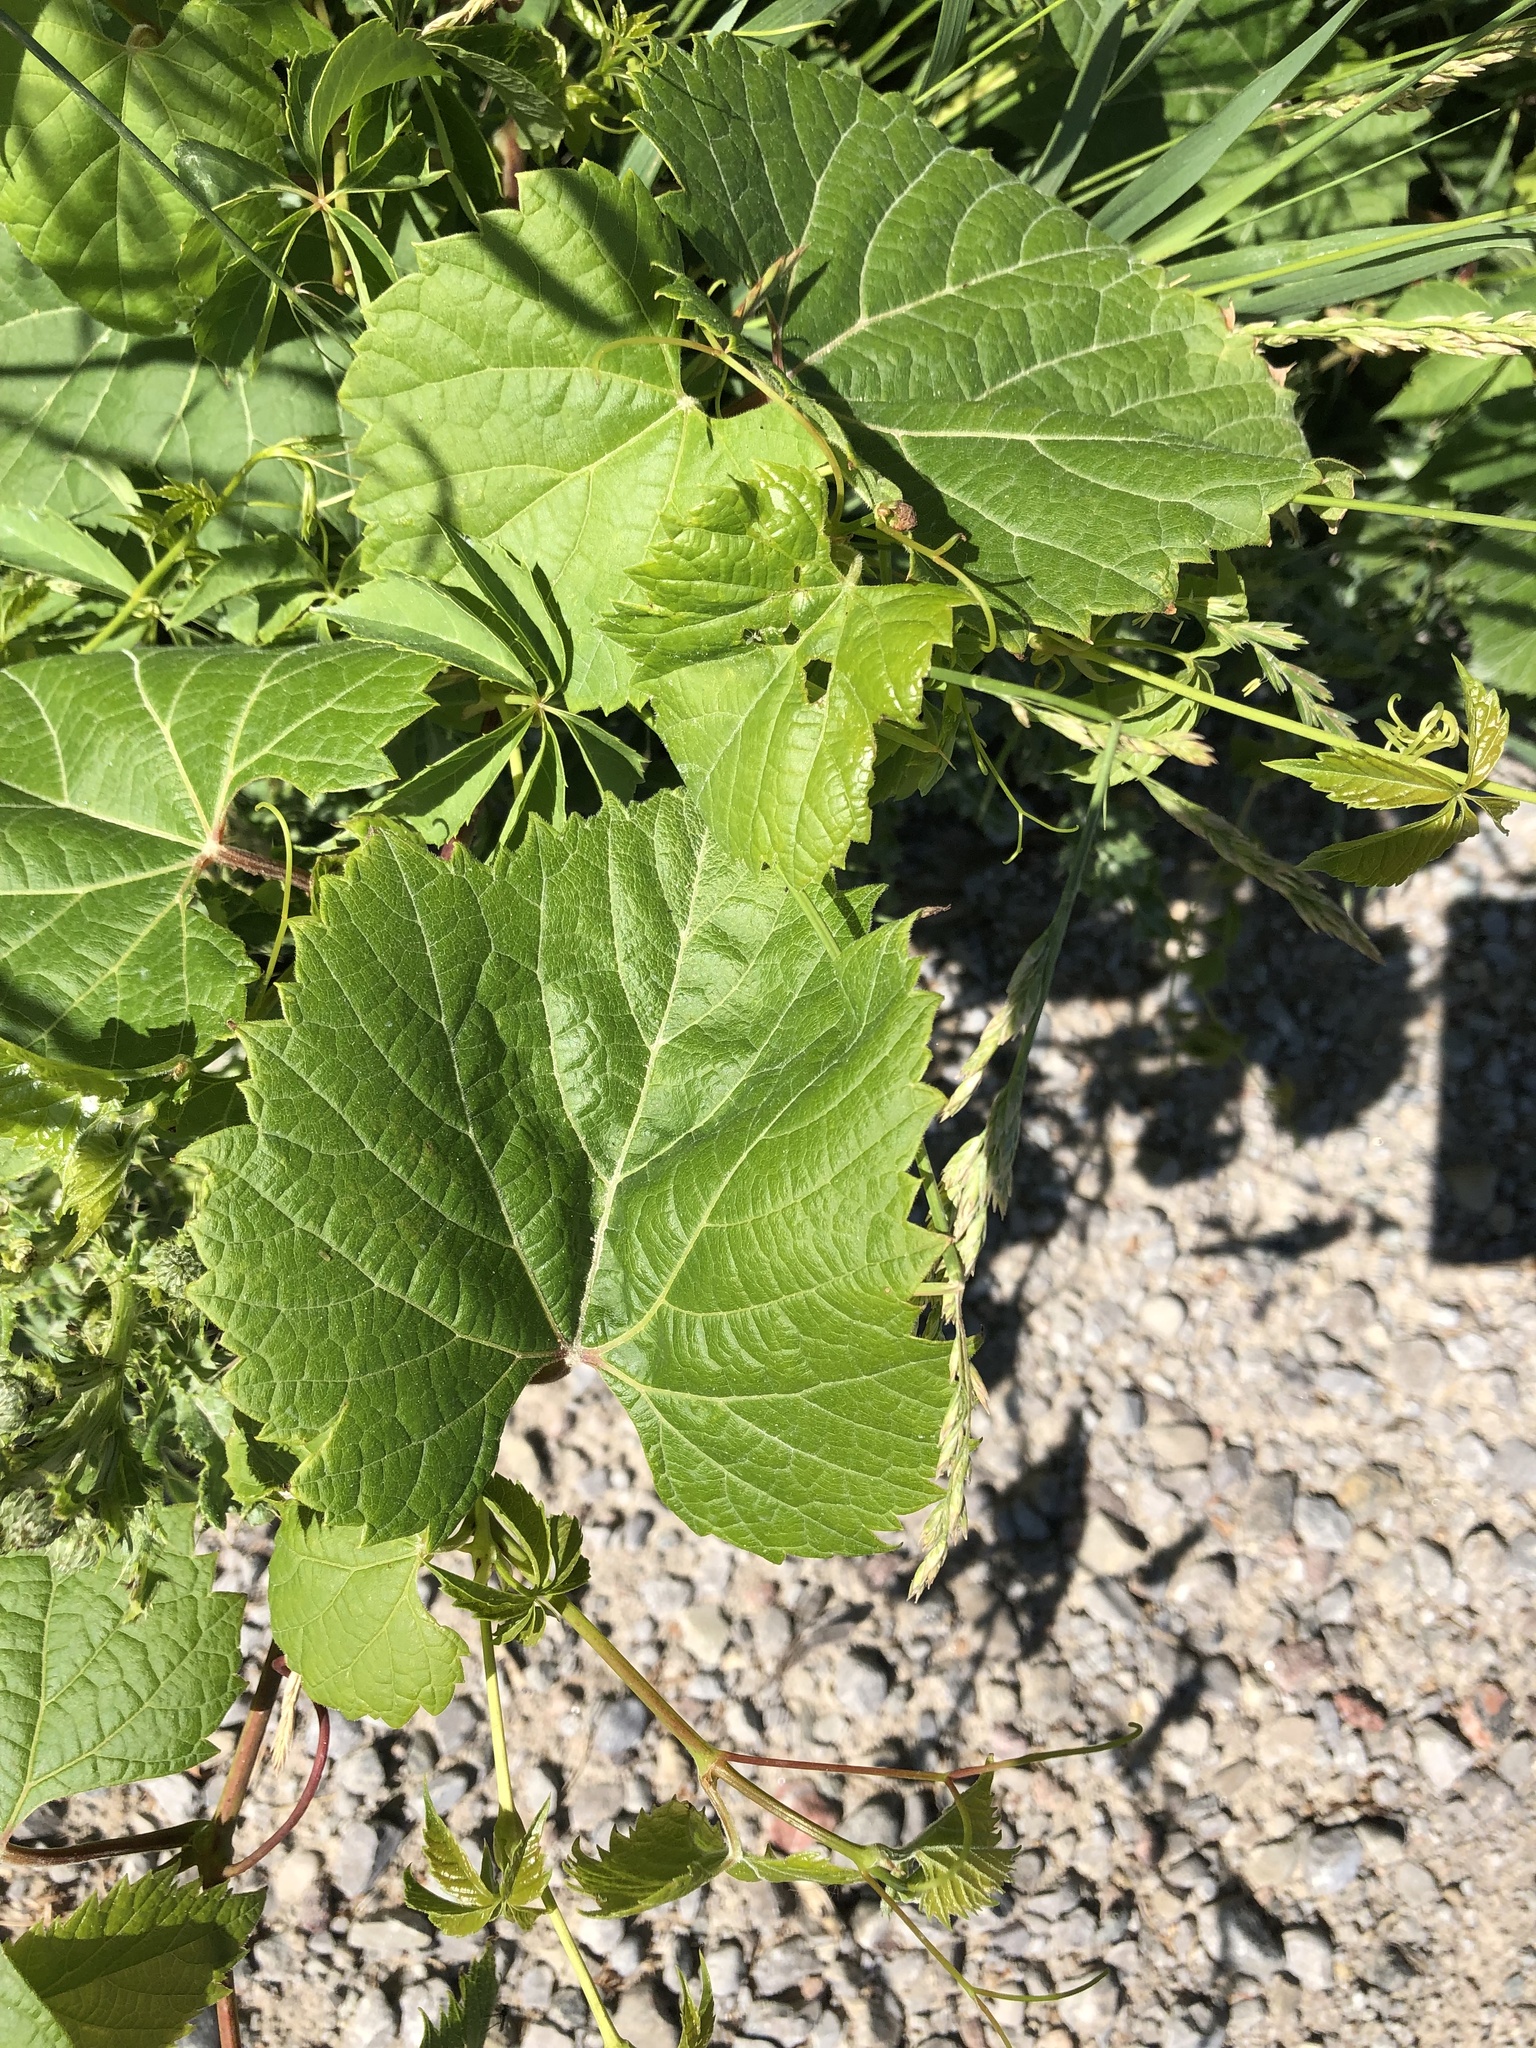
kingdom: Plantae
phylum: Tracheophyta
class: Magnoliopsida
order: Vitales
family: Vitaceae
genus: Vitis
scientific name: Vitis riparia
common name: Frost grape
